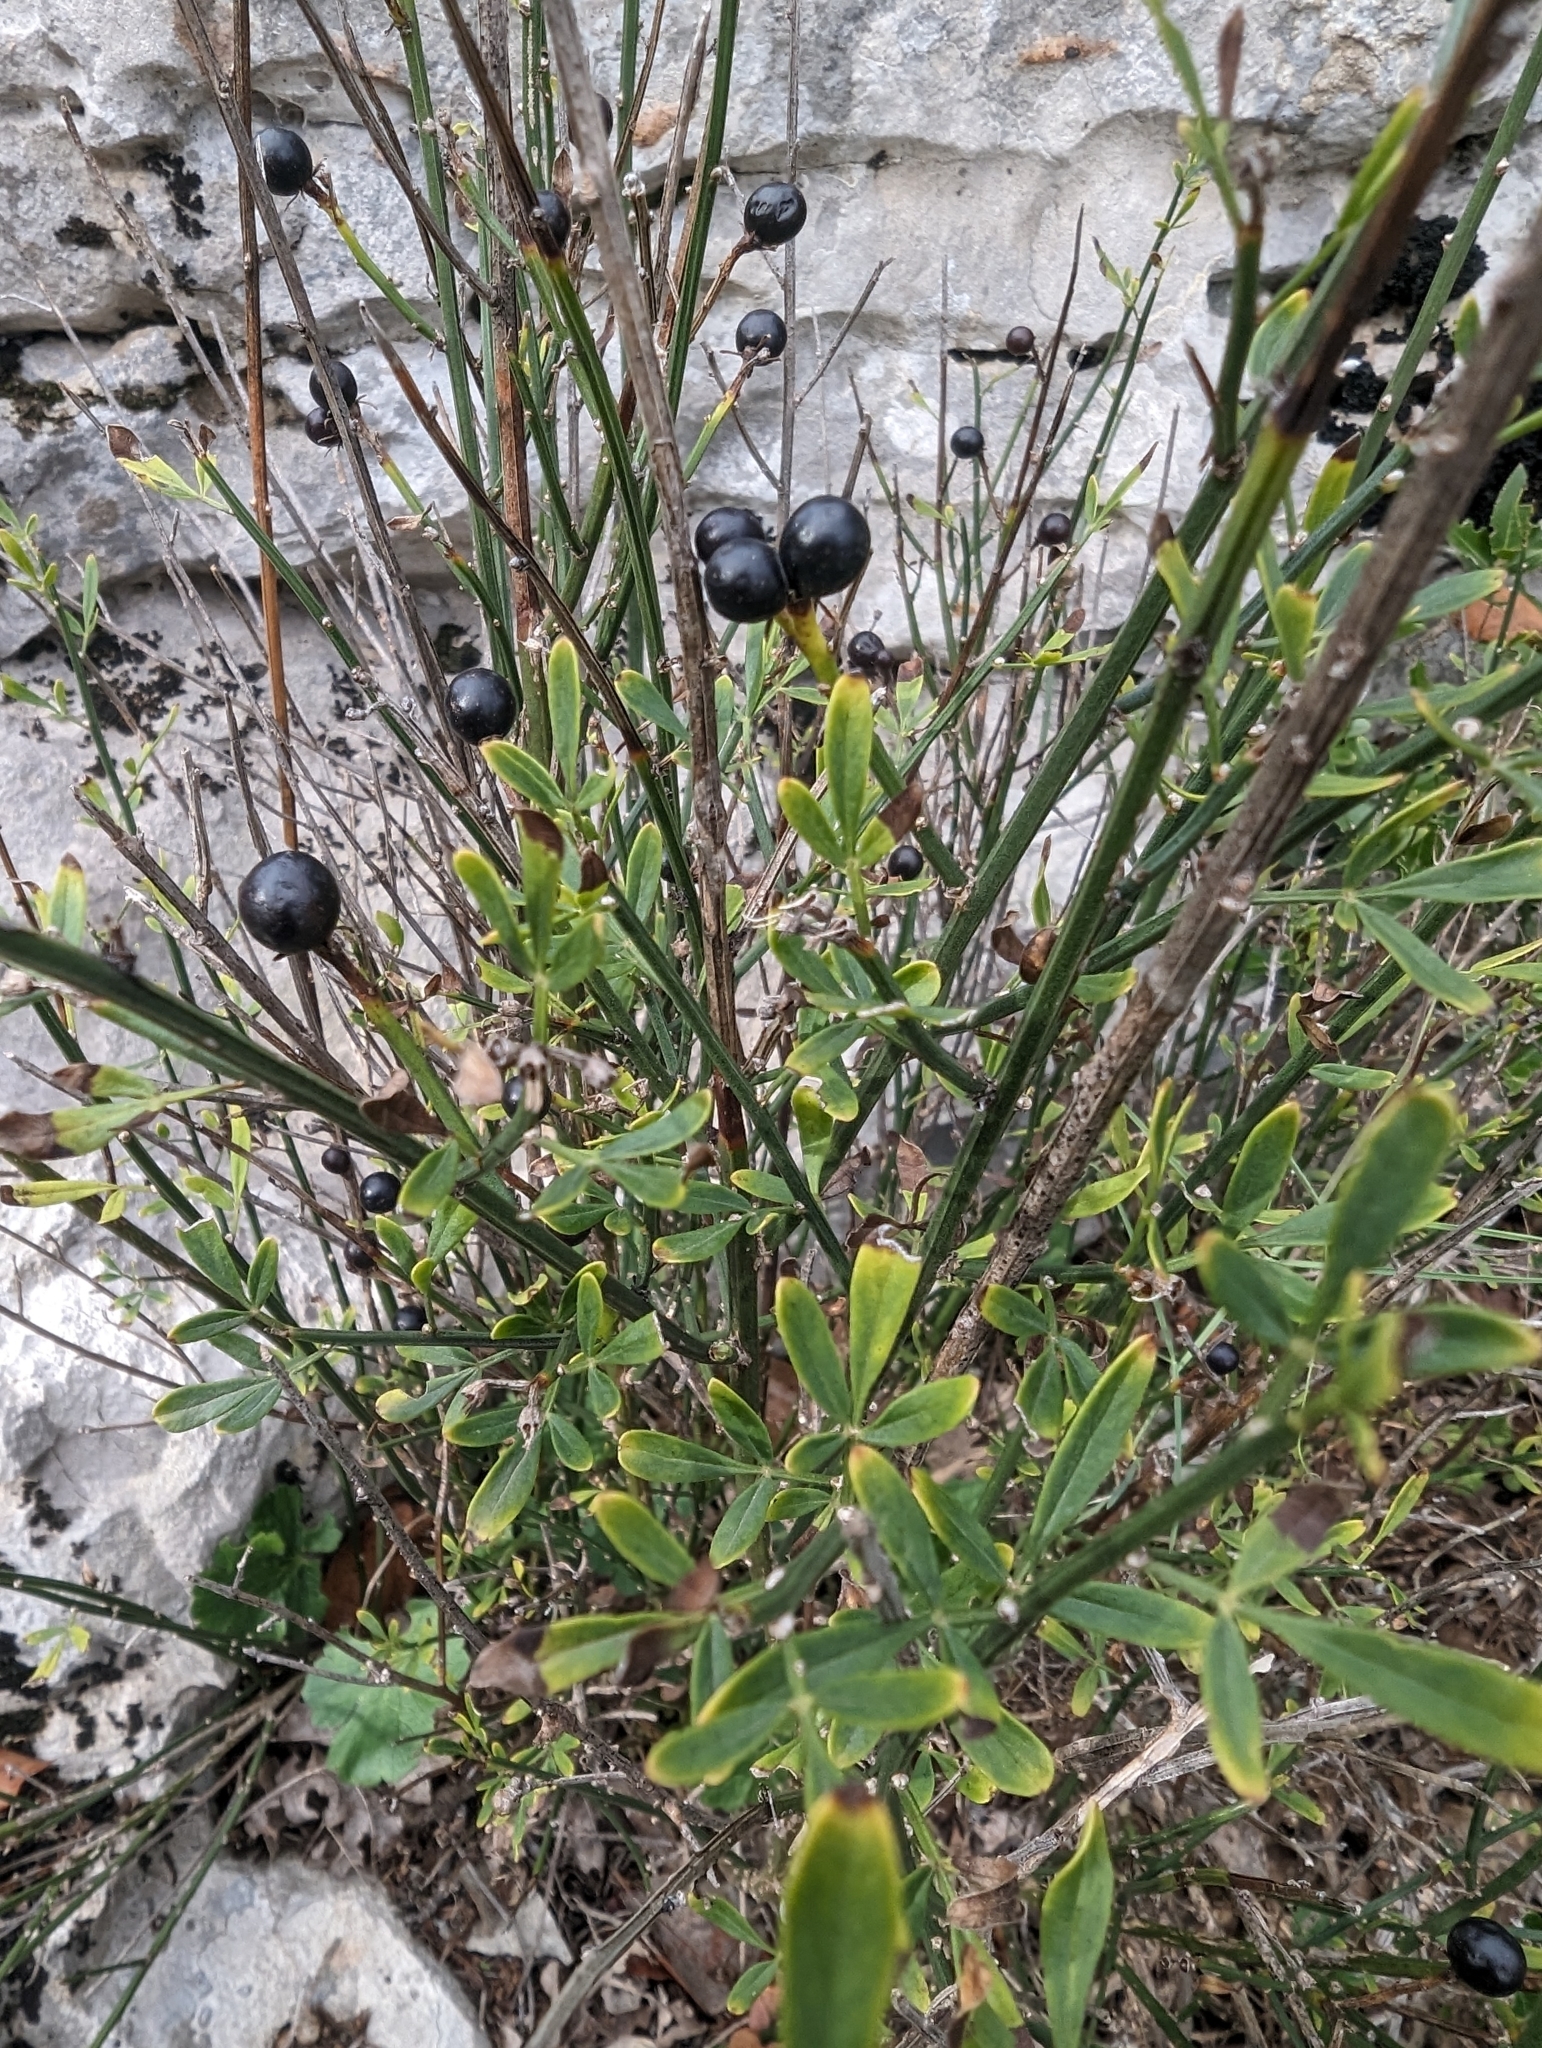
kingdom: Plantae
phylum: Tracheophyta
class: Magnoliopsida
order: Lamiales
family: Oleaceae
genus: Chrysojasminum
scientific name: Chrysojasminum fruticans
